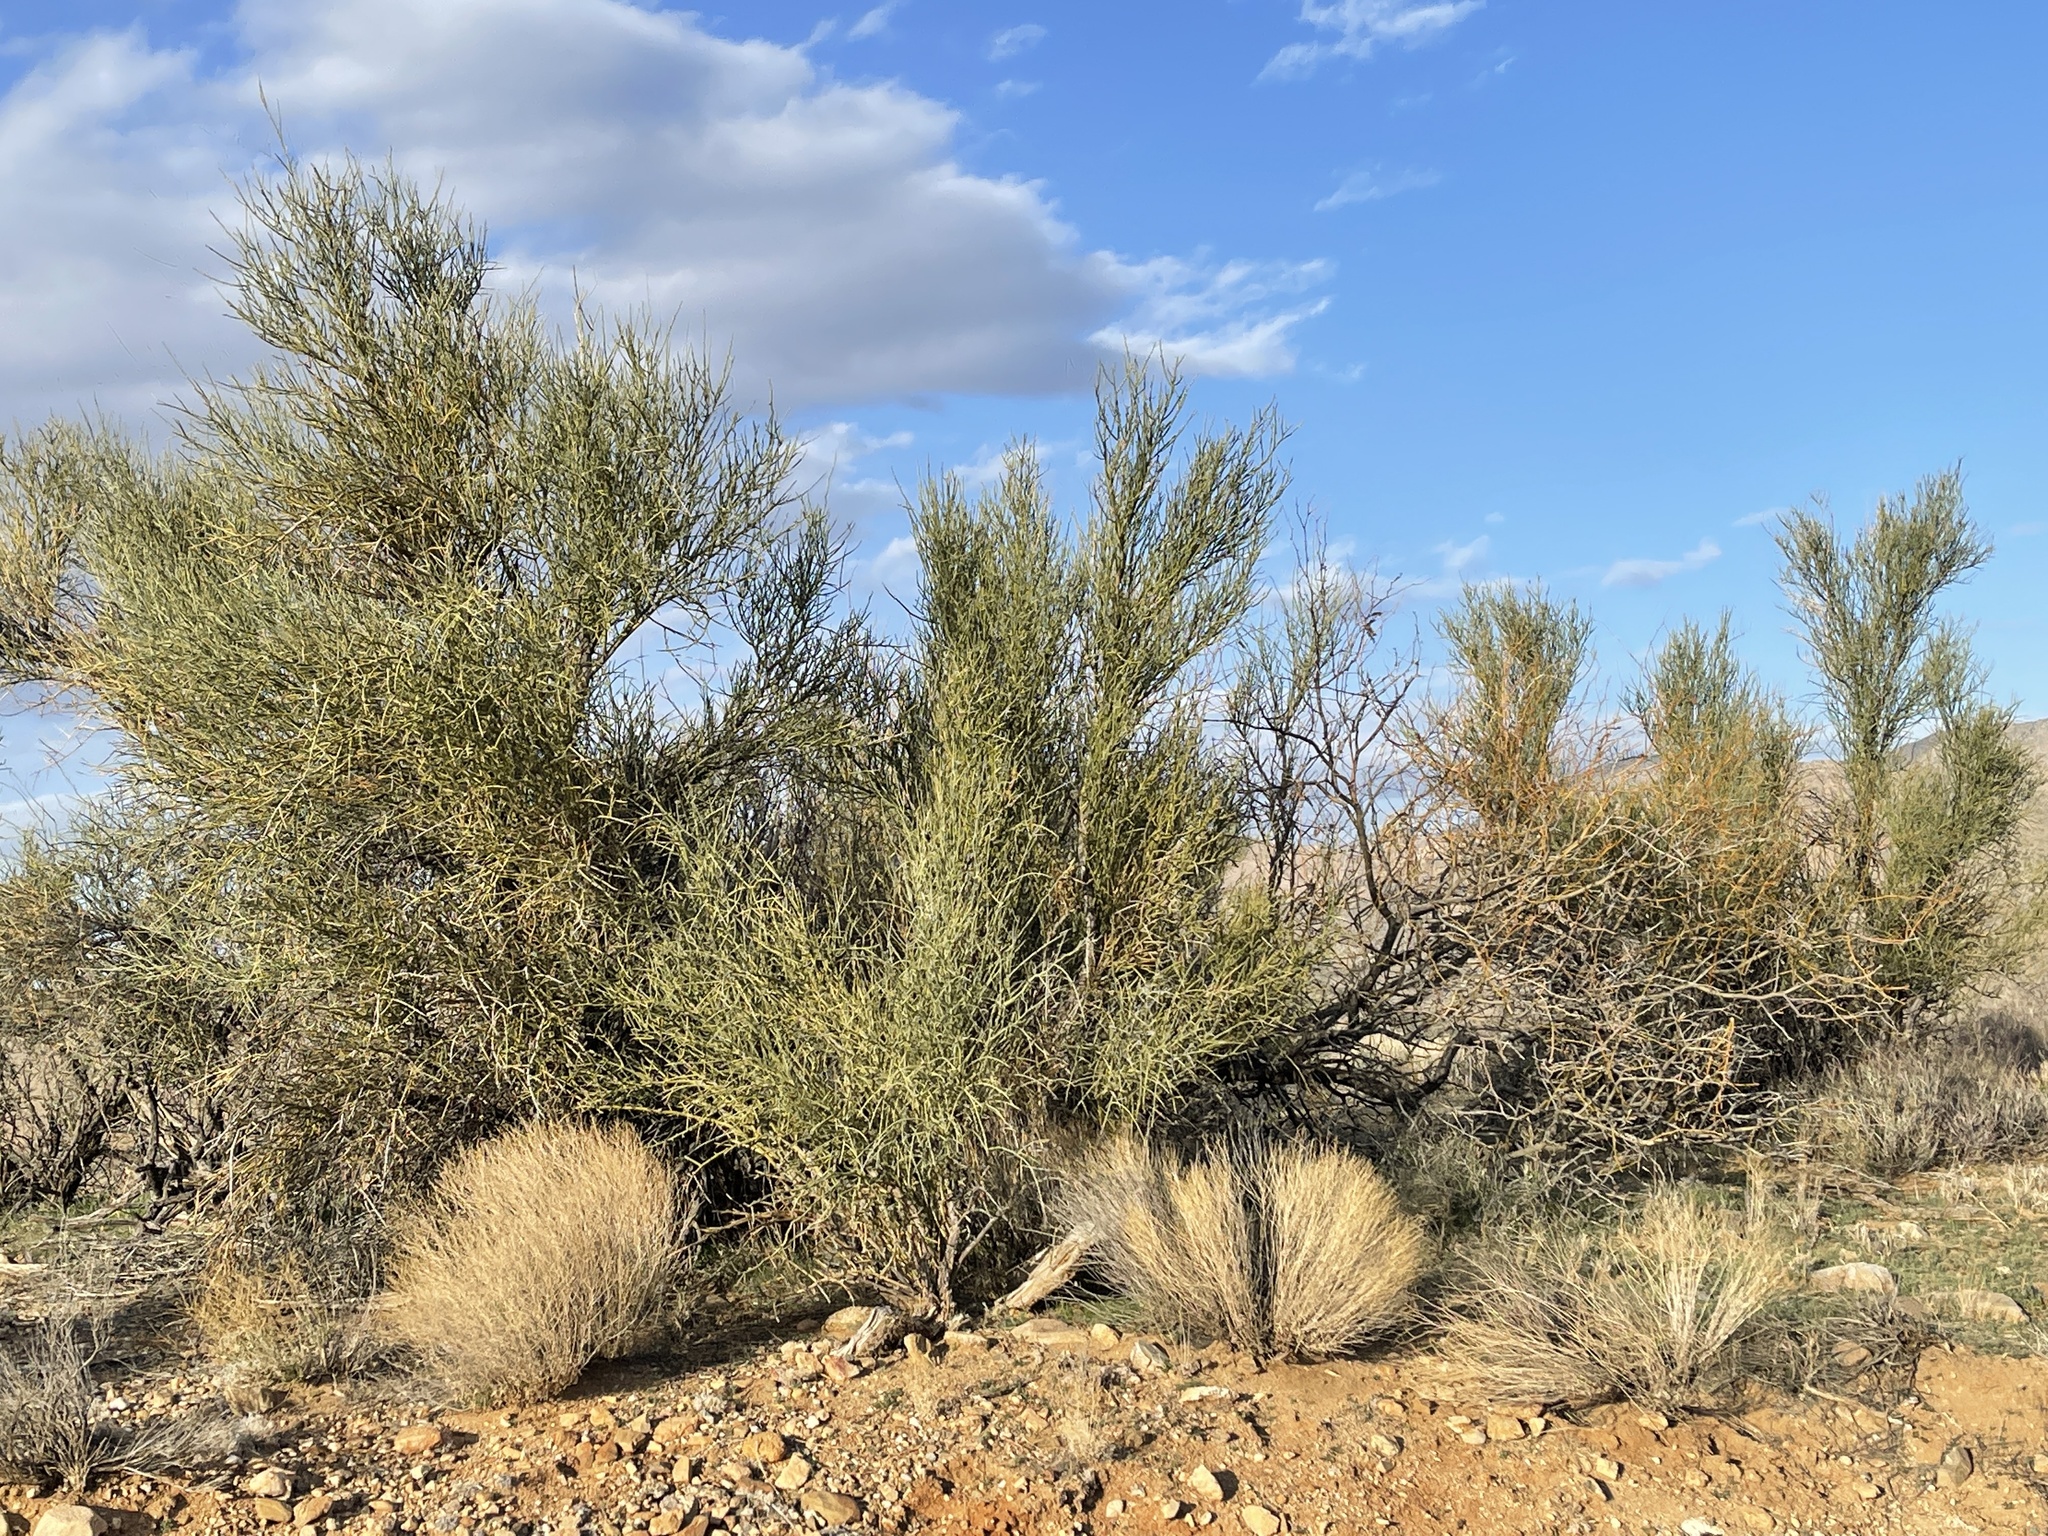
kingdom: Plantae
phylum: Tracheophyta
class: Magnoliopsida
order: Celastrales
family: Celastraceae
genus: Canotia
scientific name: Canotia holacantha
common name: Crucifixion thorns
